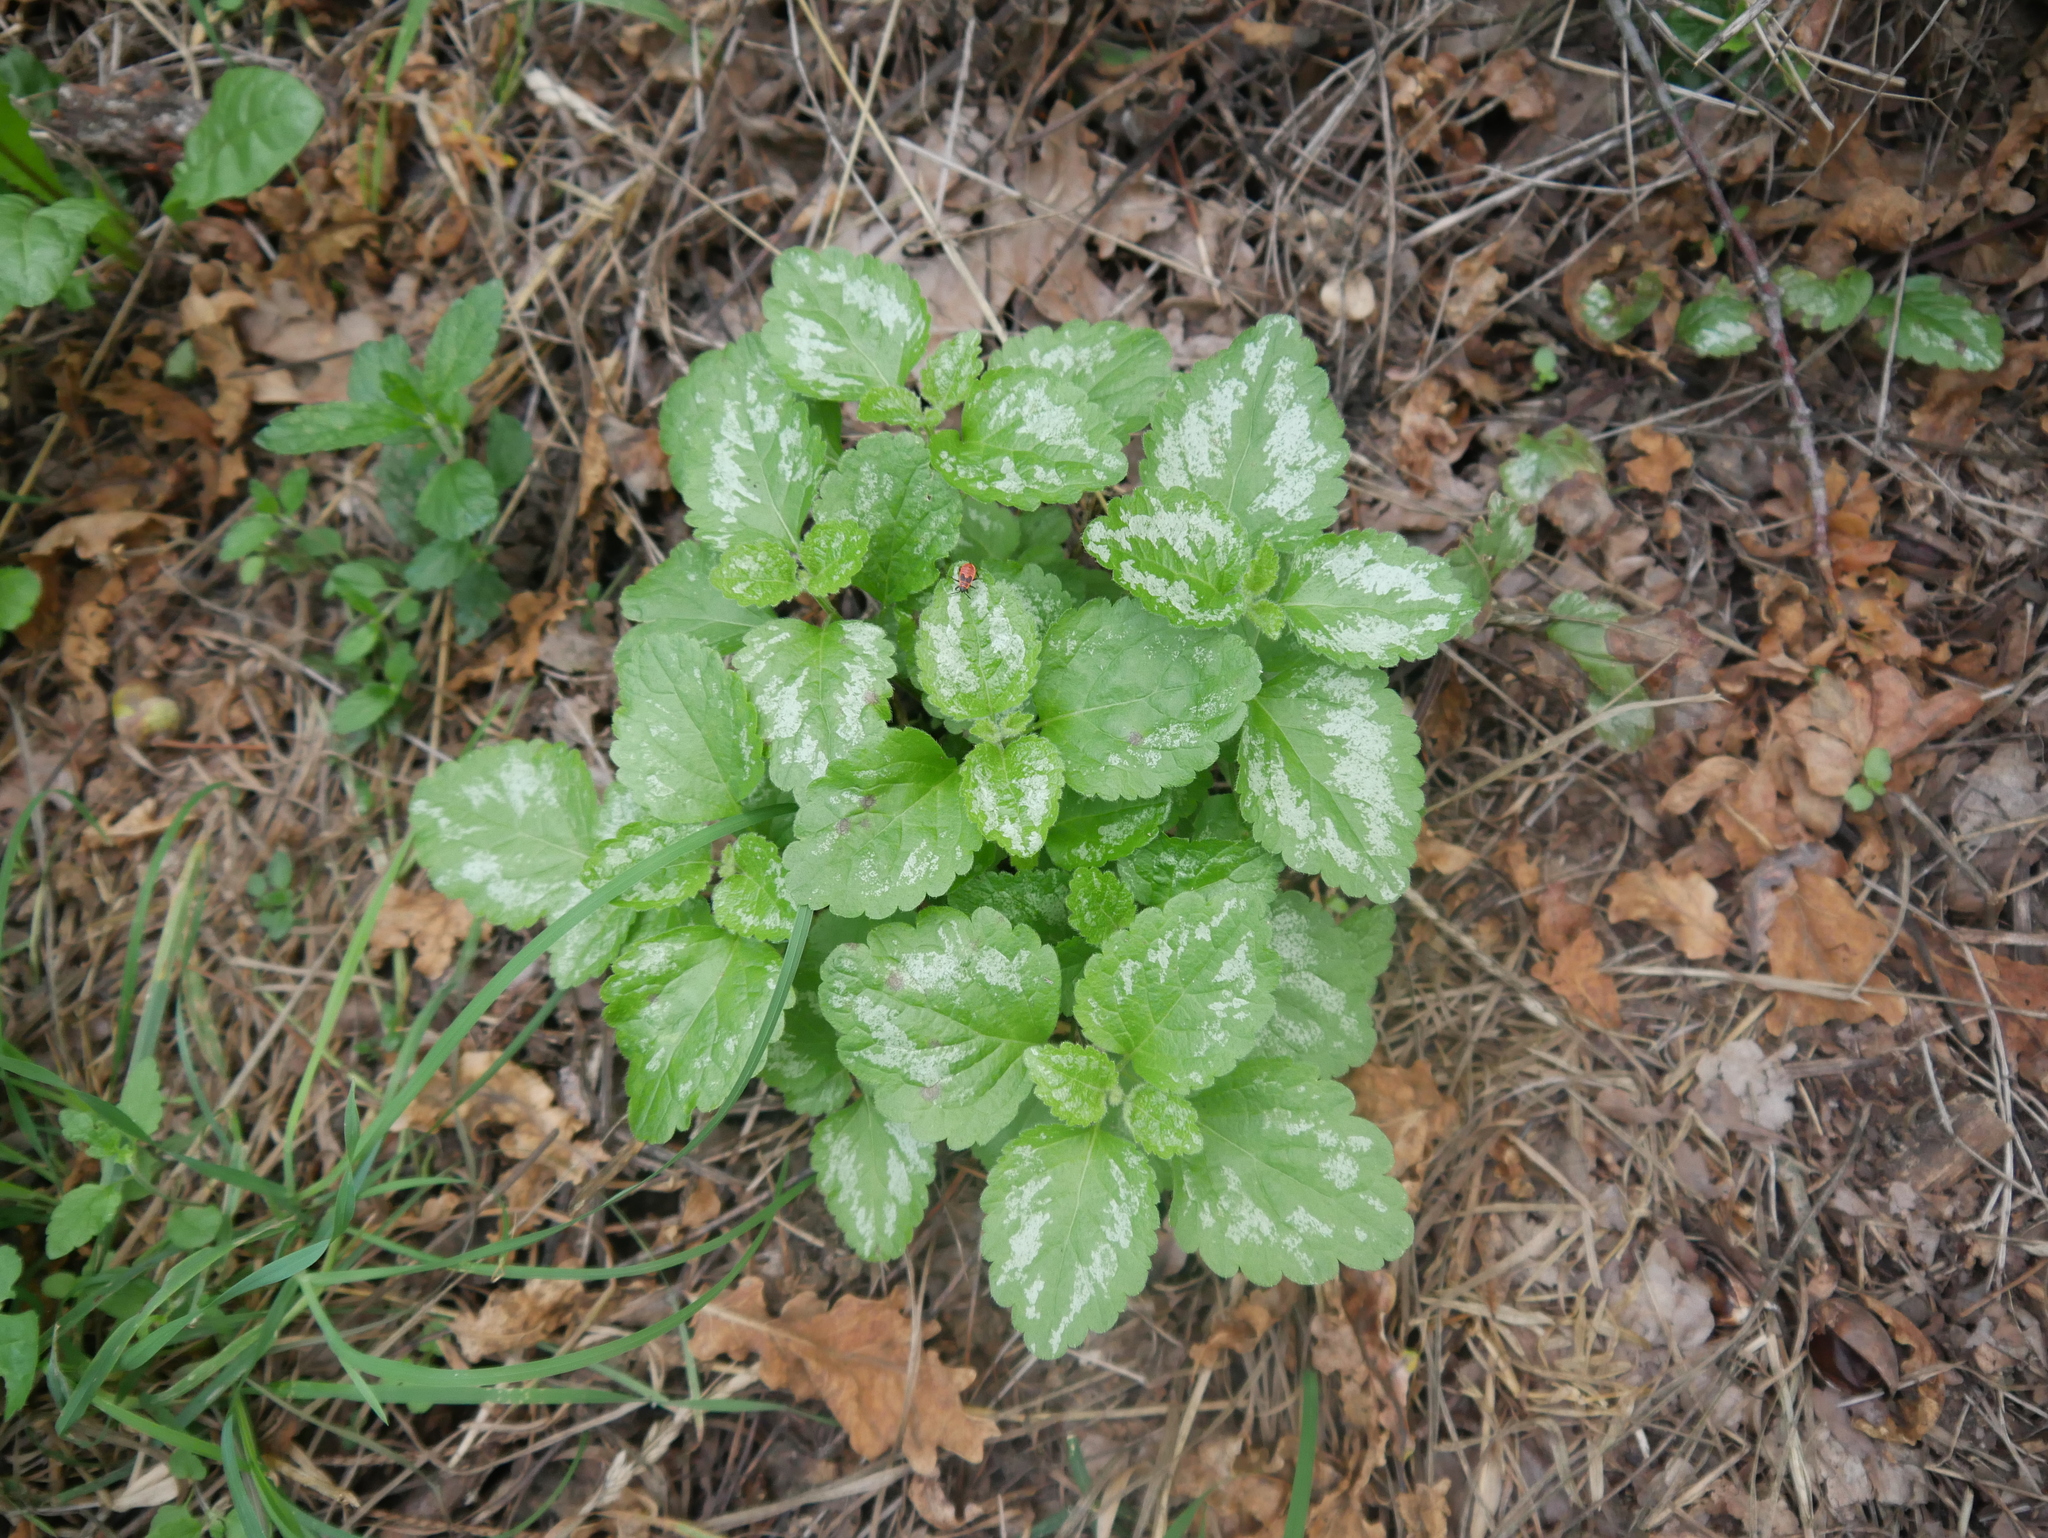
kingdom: Plantae
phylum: Tracheophyta
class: Magnoliopsida
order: Lamiales
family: Lamiaceae
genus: Lamium
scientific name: Lamium galeobdolon
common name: Yellow archangel
